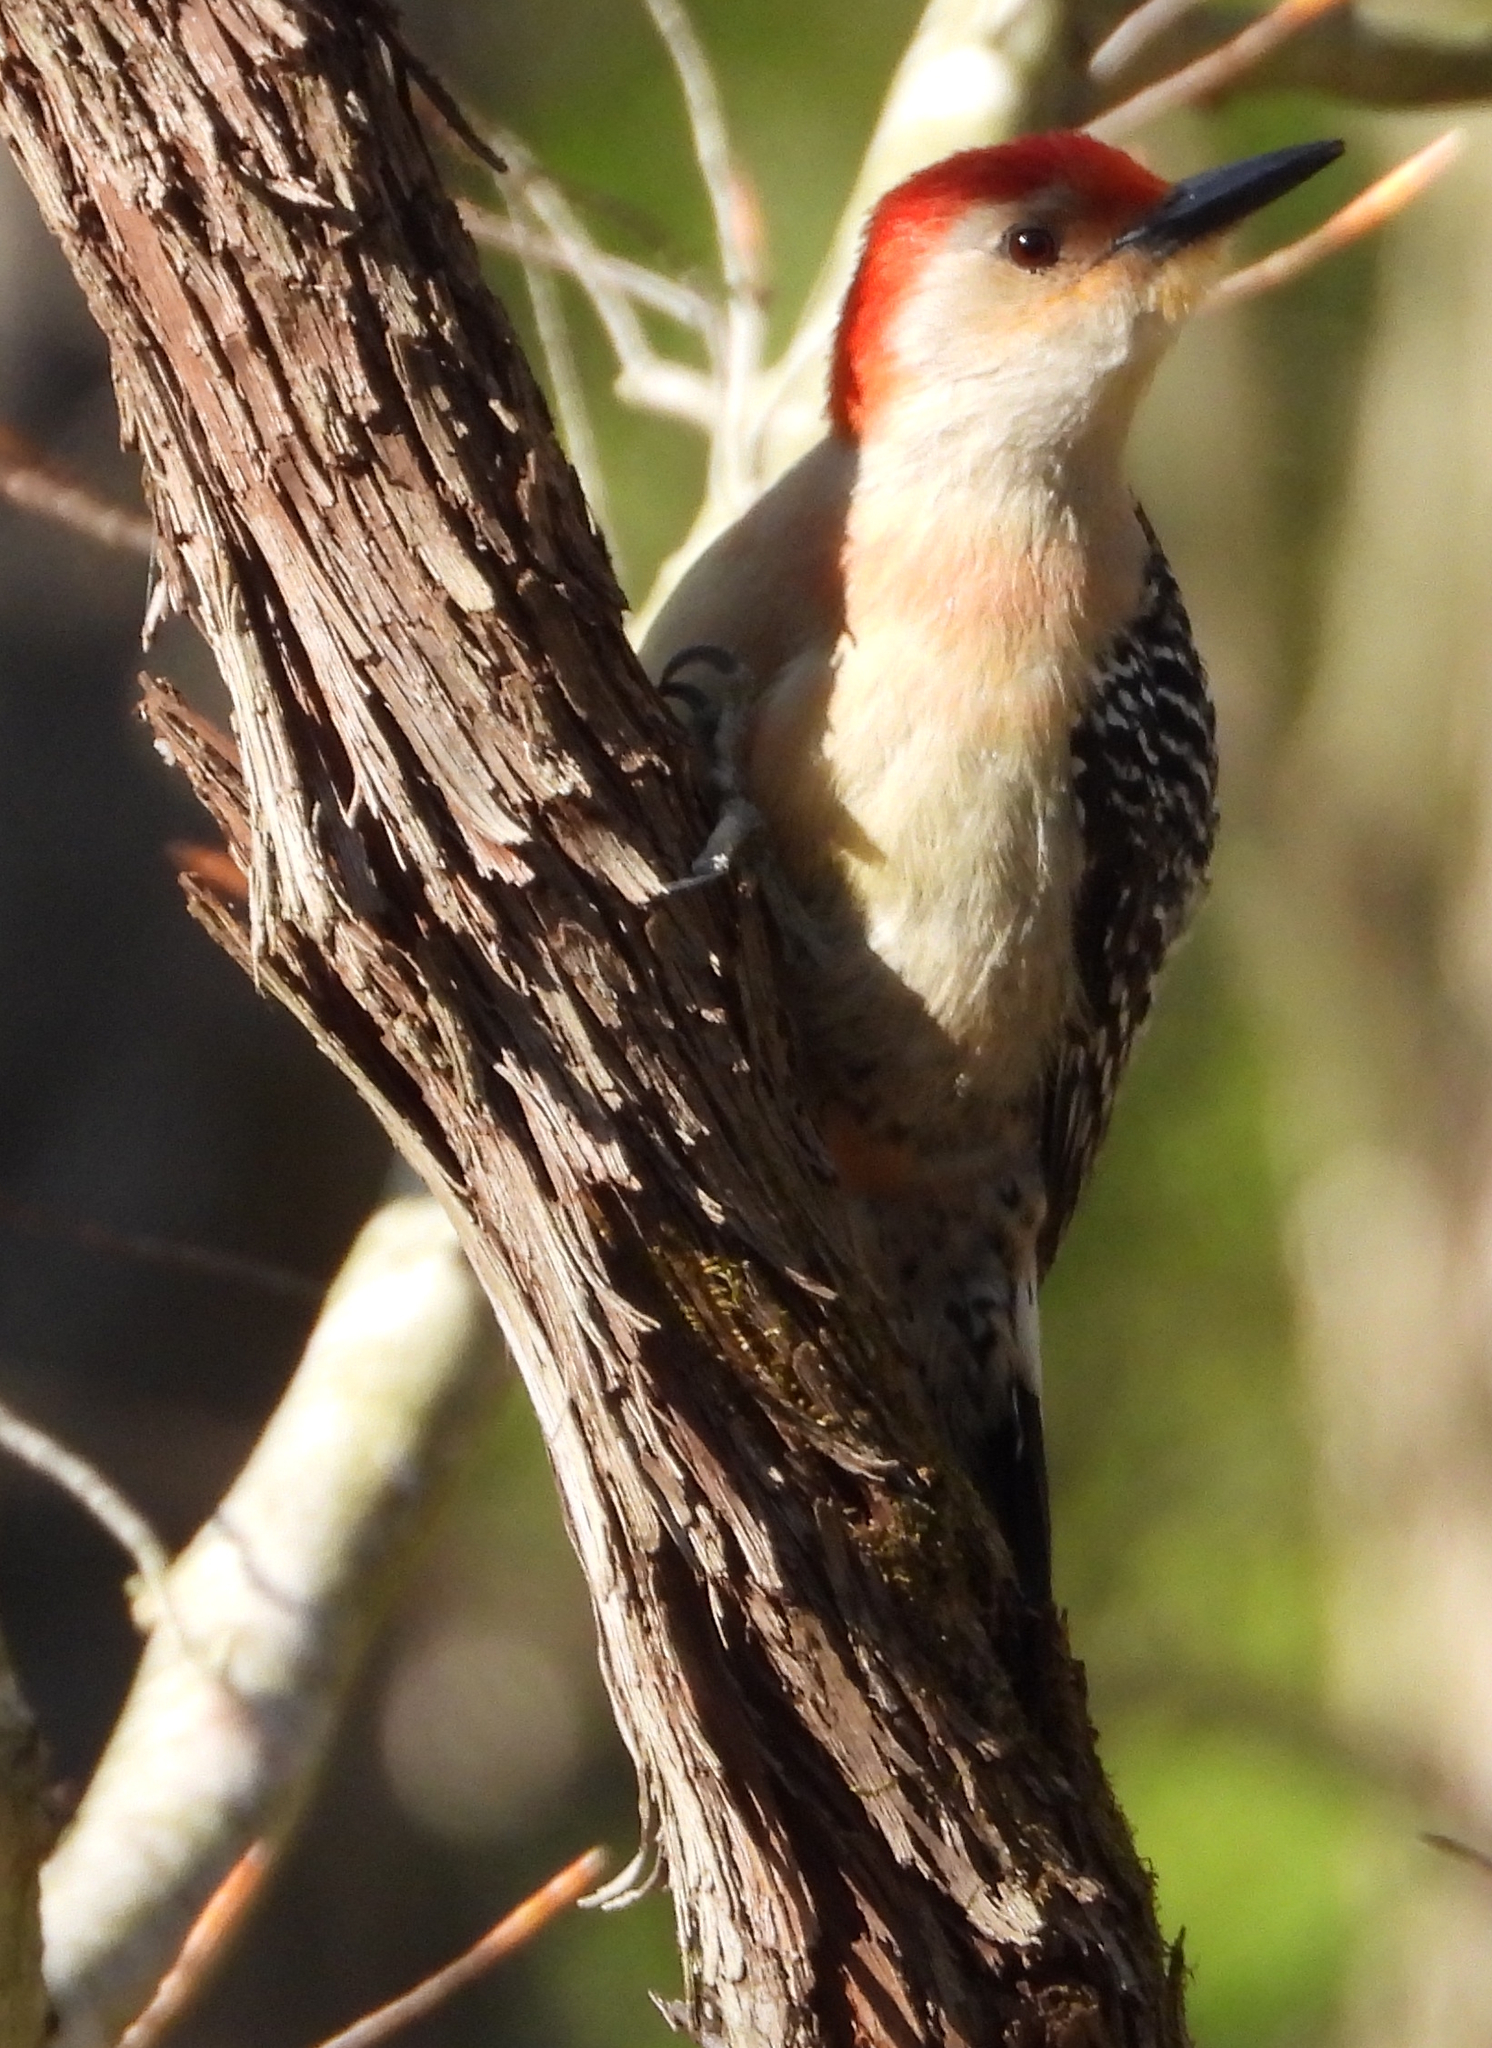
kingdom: Animalia
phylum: Chordata
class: Aves
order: Piciformes
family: Picidae
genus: Melanerpes
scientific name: Melanerpes carolinus
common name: Red-bellied woodpecker
